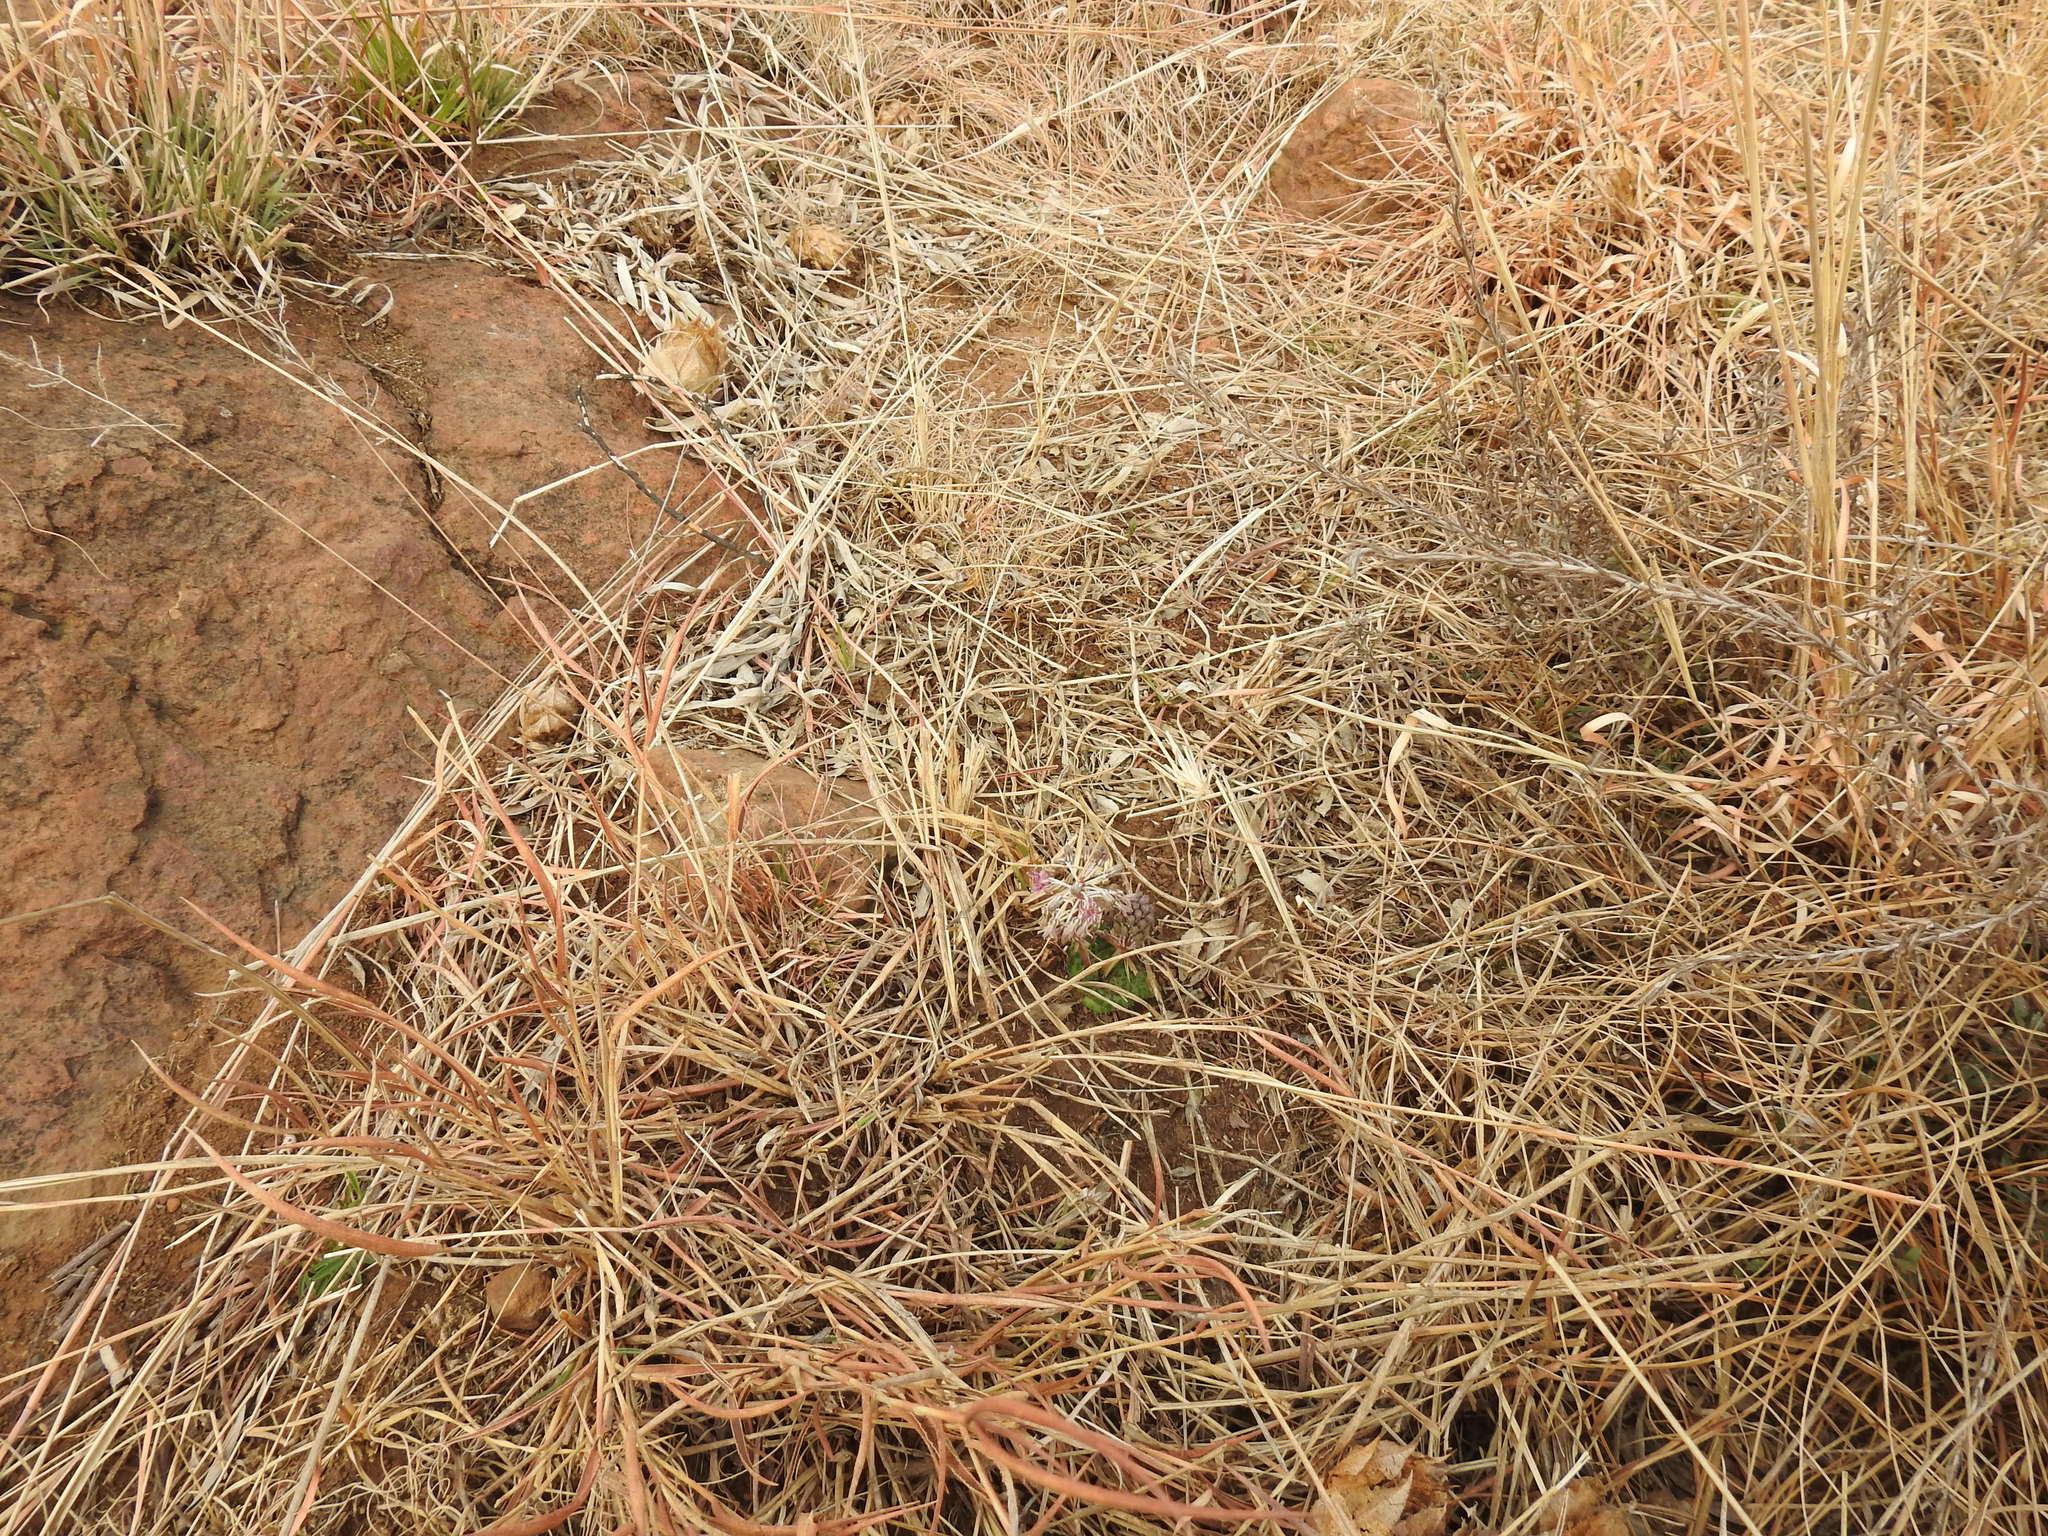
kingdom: Plantae
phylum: Tracheophyta
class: Liliopsida
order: Asparagales
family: Asparagaceae
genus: Ledebouria
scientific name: Ledebouria ovatifolia
